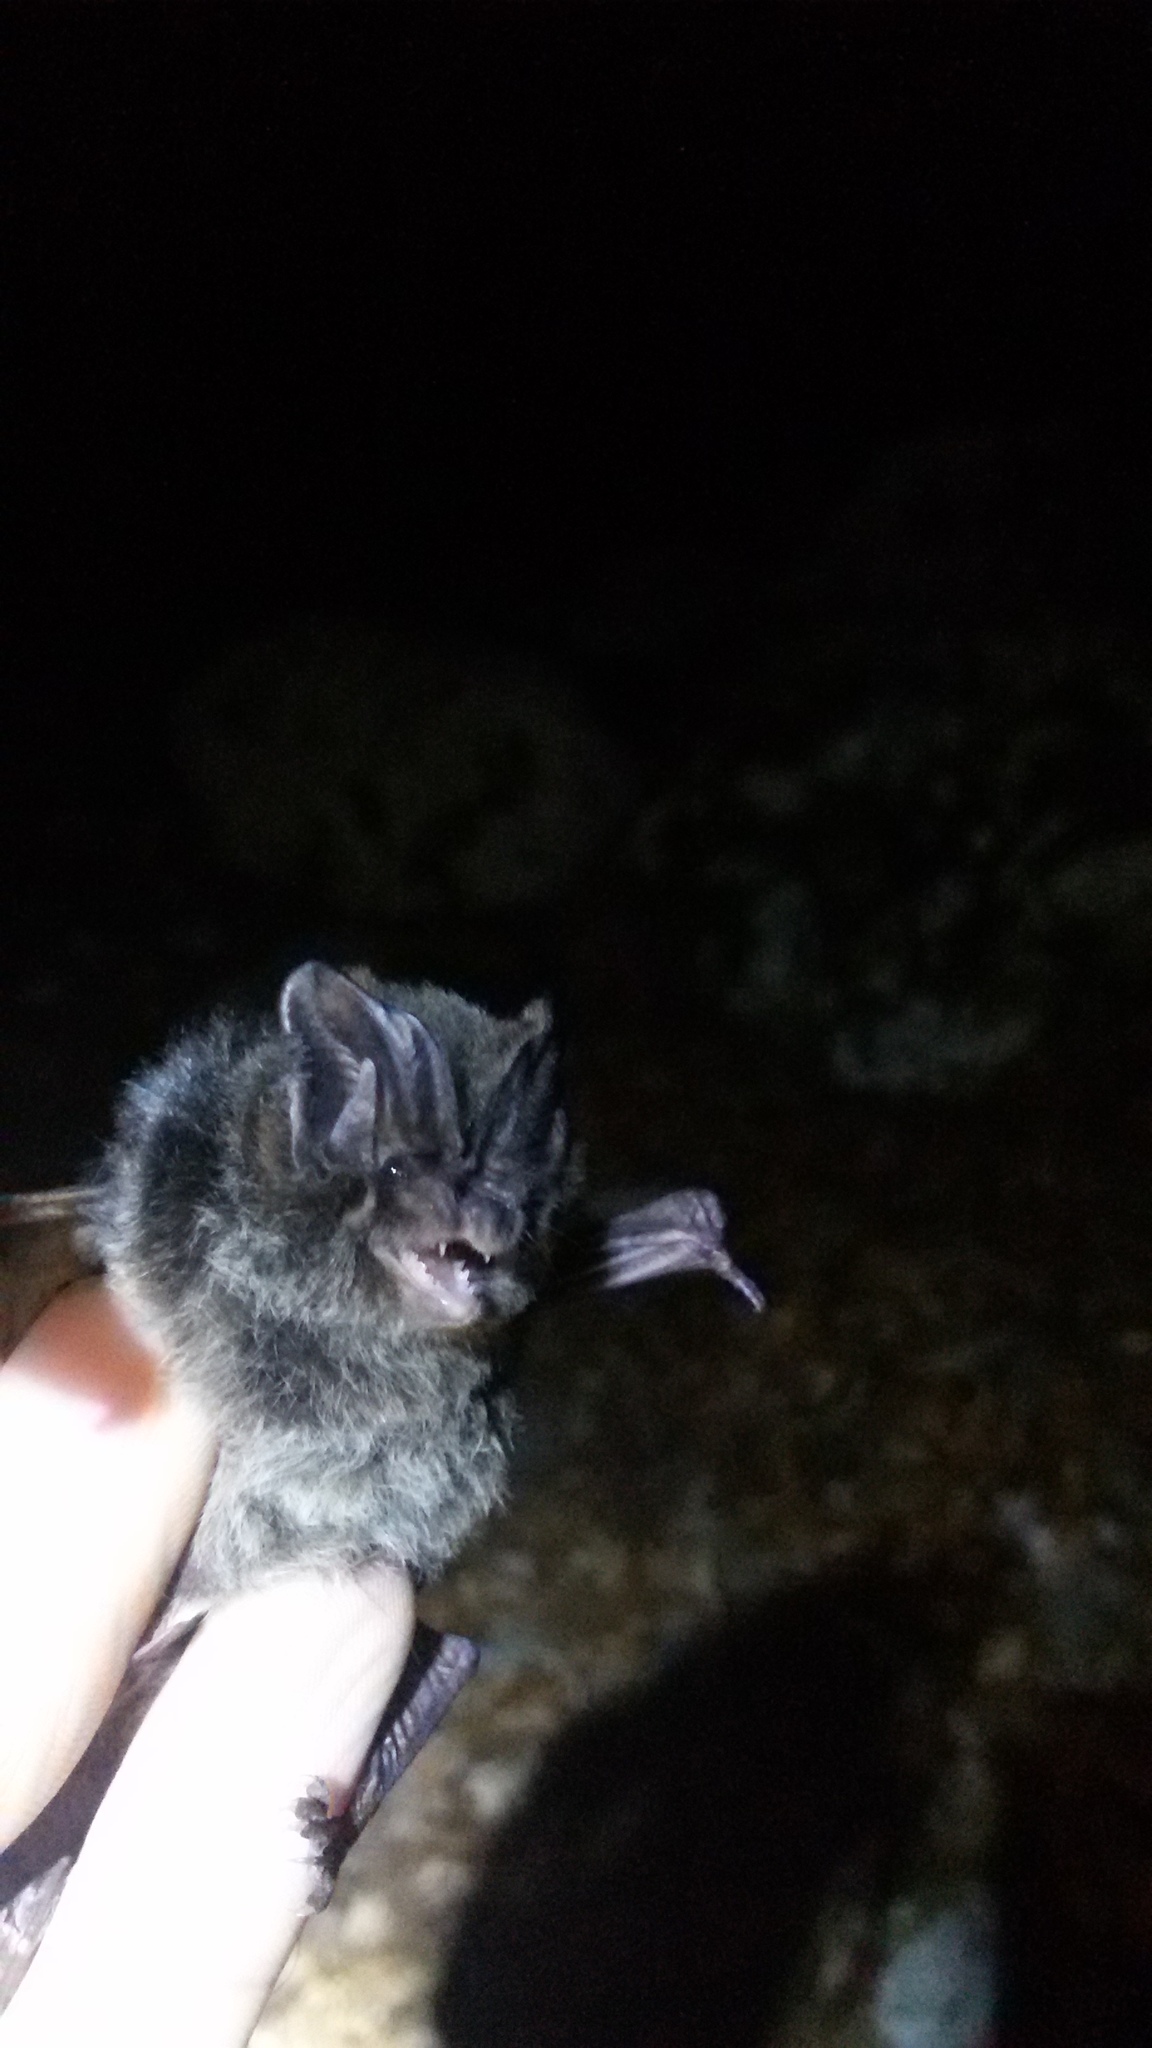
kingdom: Animalia
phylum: Chordata
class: Mammalia
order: Chiroptera
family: Vespertilionidae
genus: Barbastella
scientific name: Barbastella barbastellus
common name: Western barbastelle
